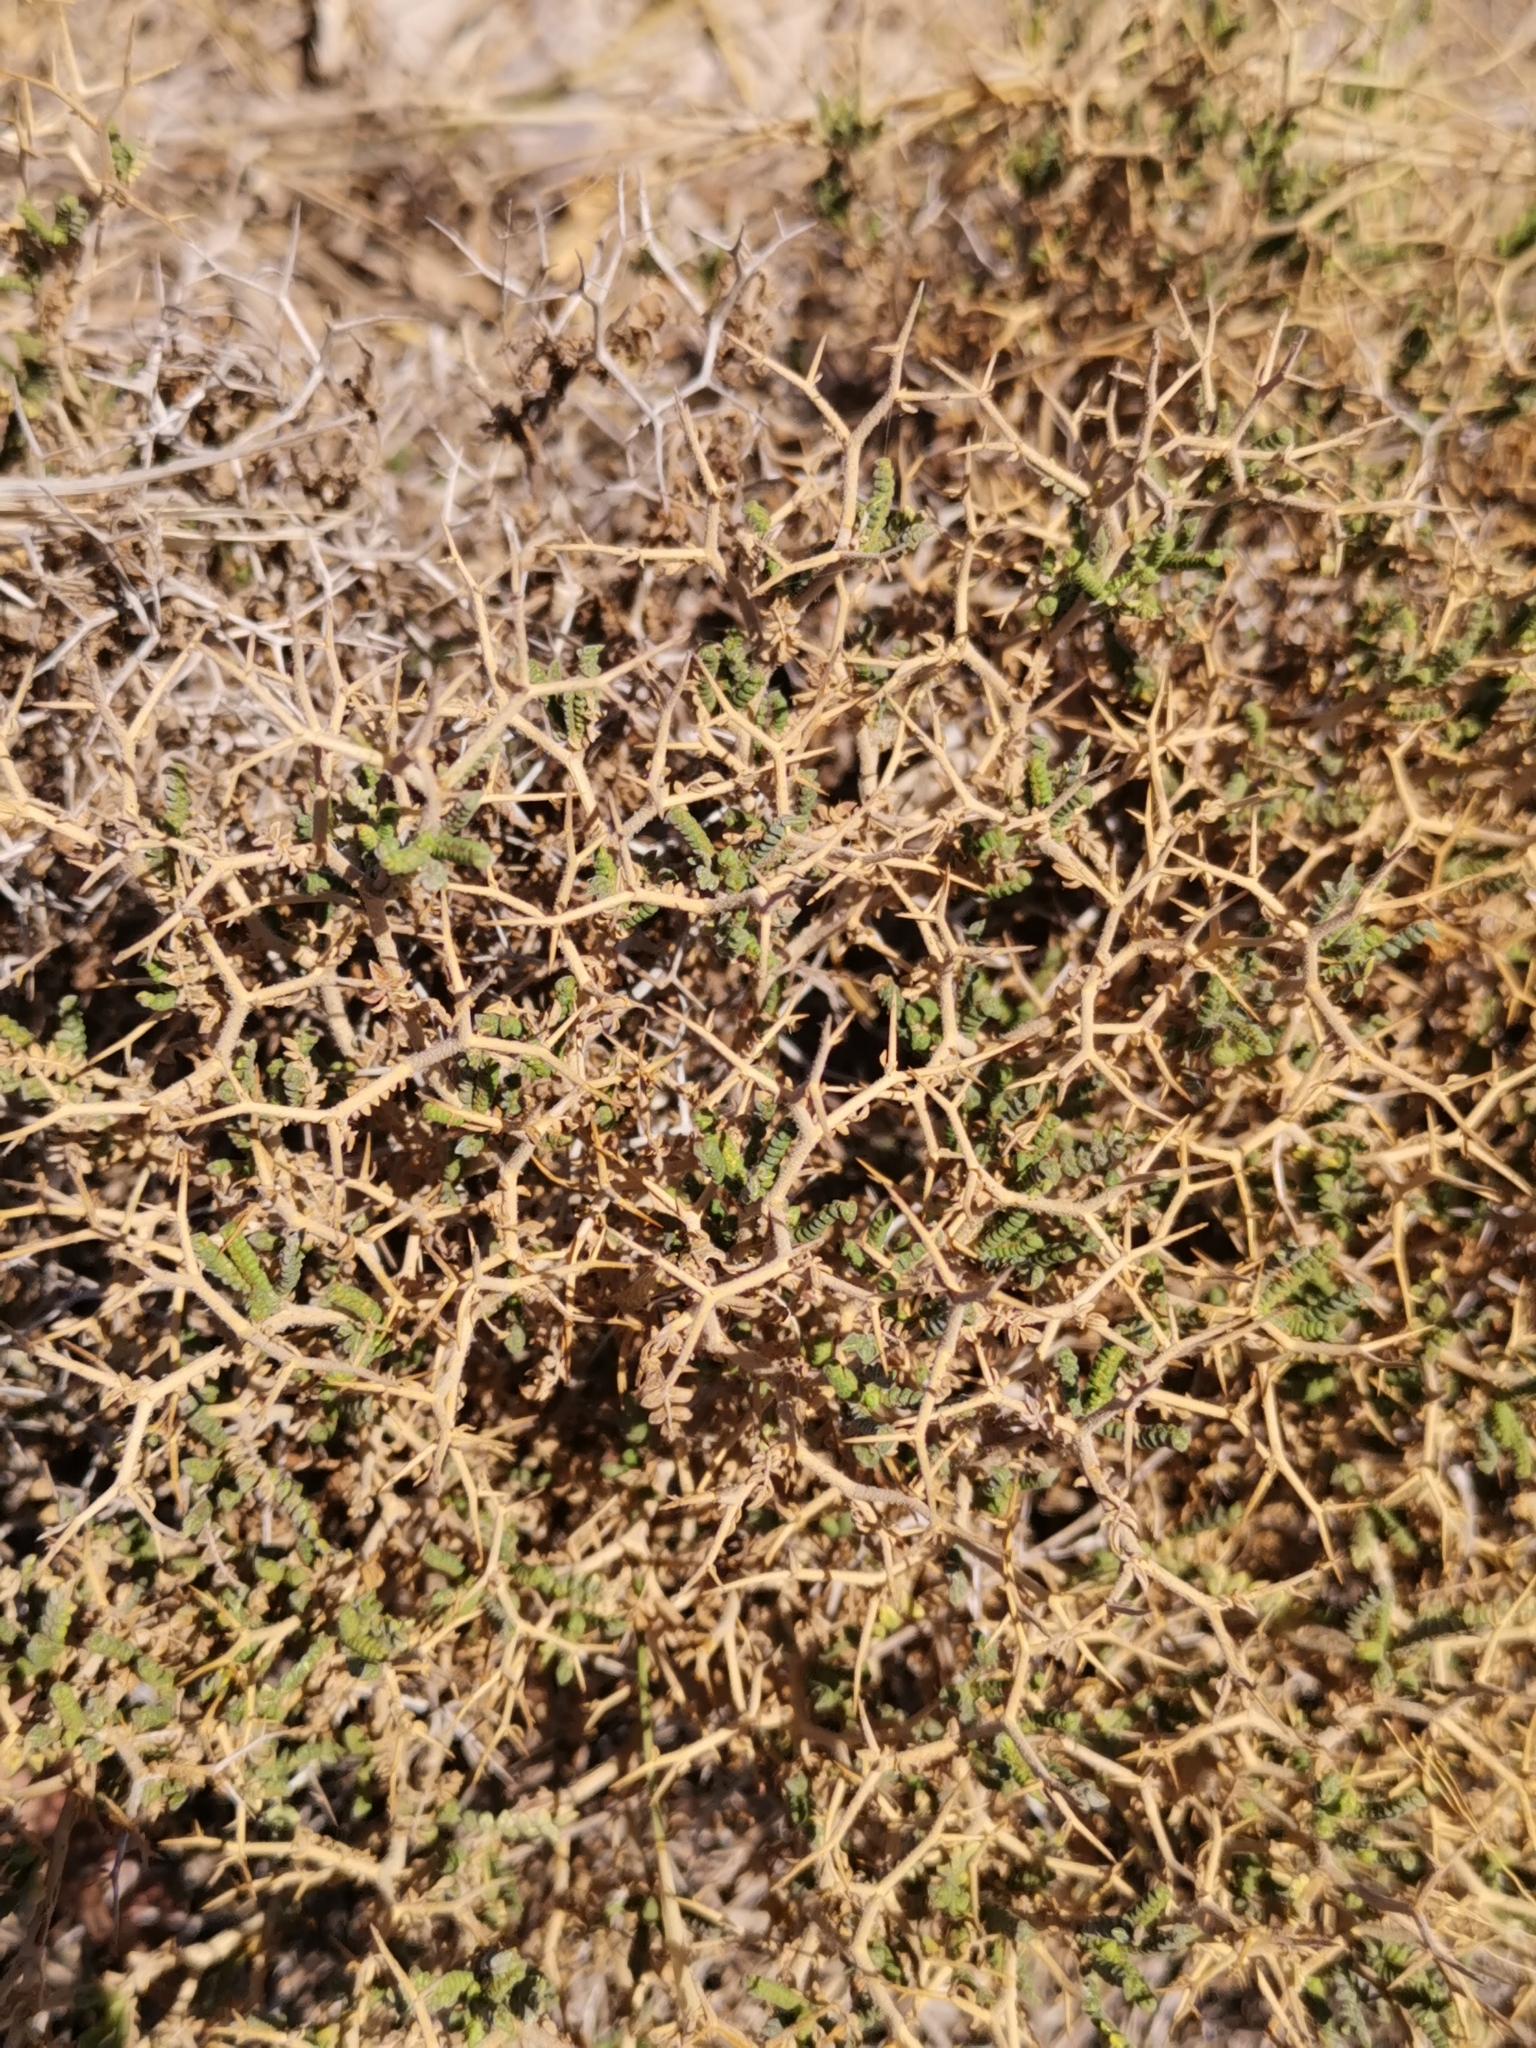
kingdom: Plantae
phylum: Tracheophyta
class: Magnoliopsida
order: Rosales
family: Rosaceae
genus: Sarcopoterium
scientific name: Sarcopoterium spinosum
